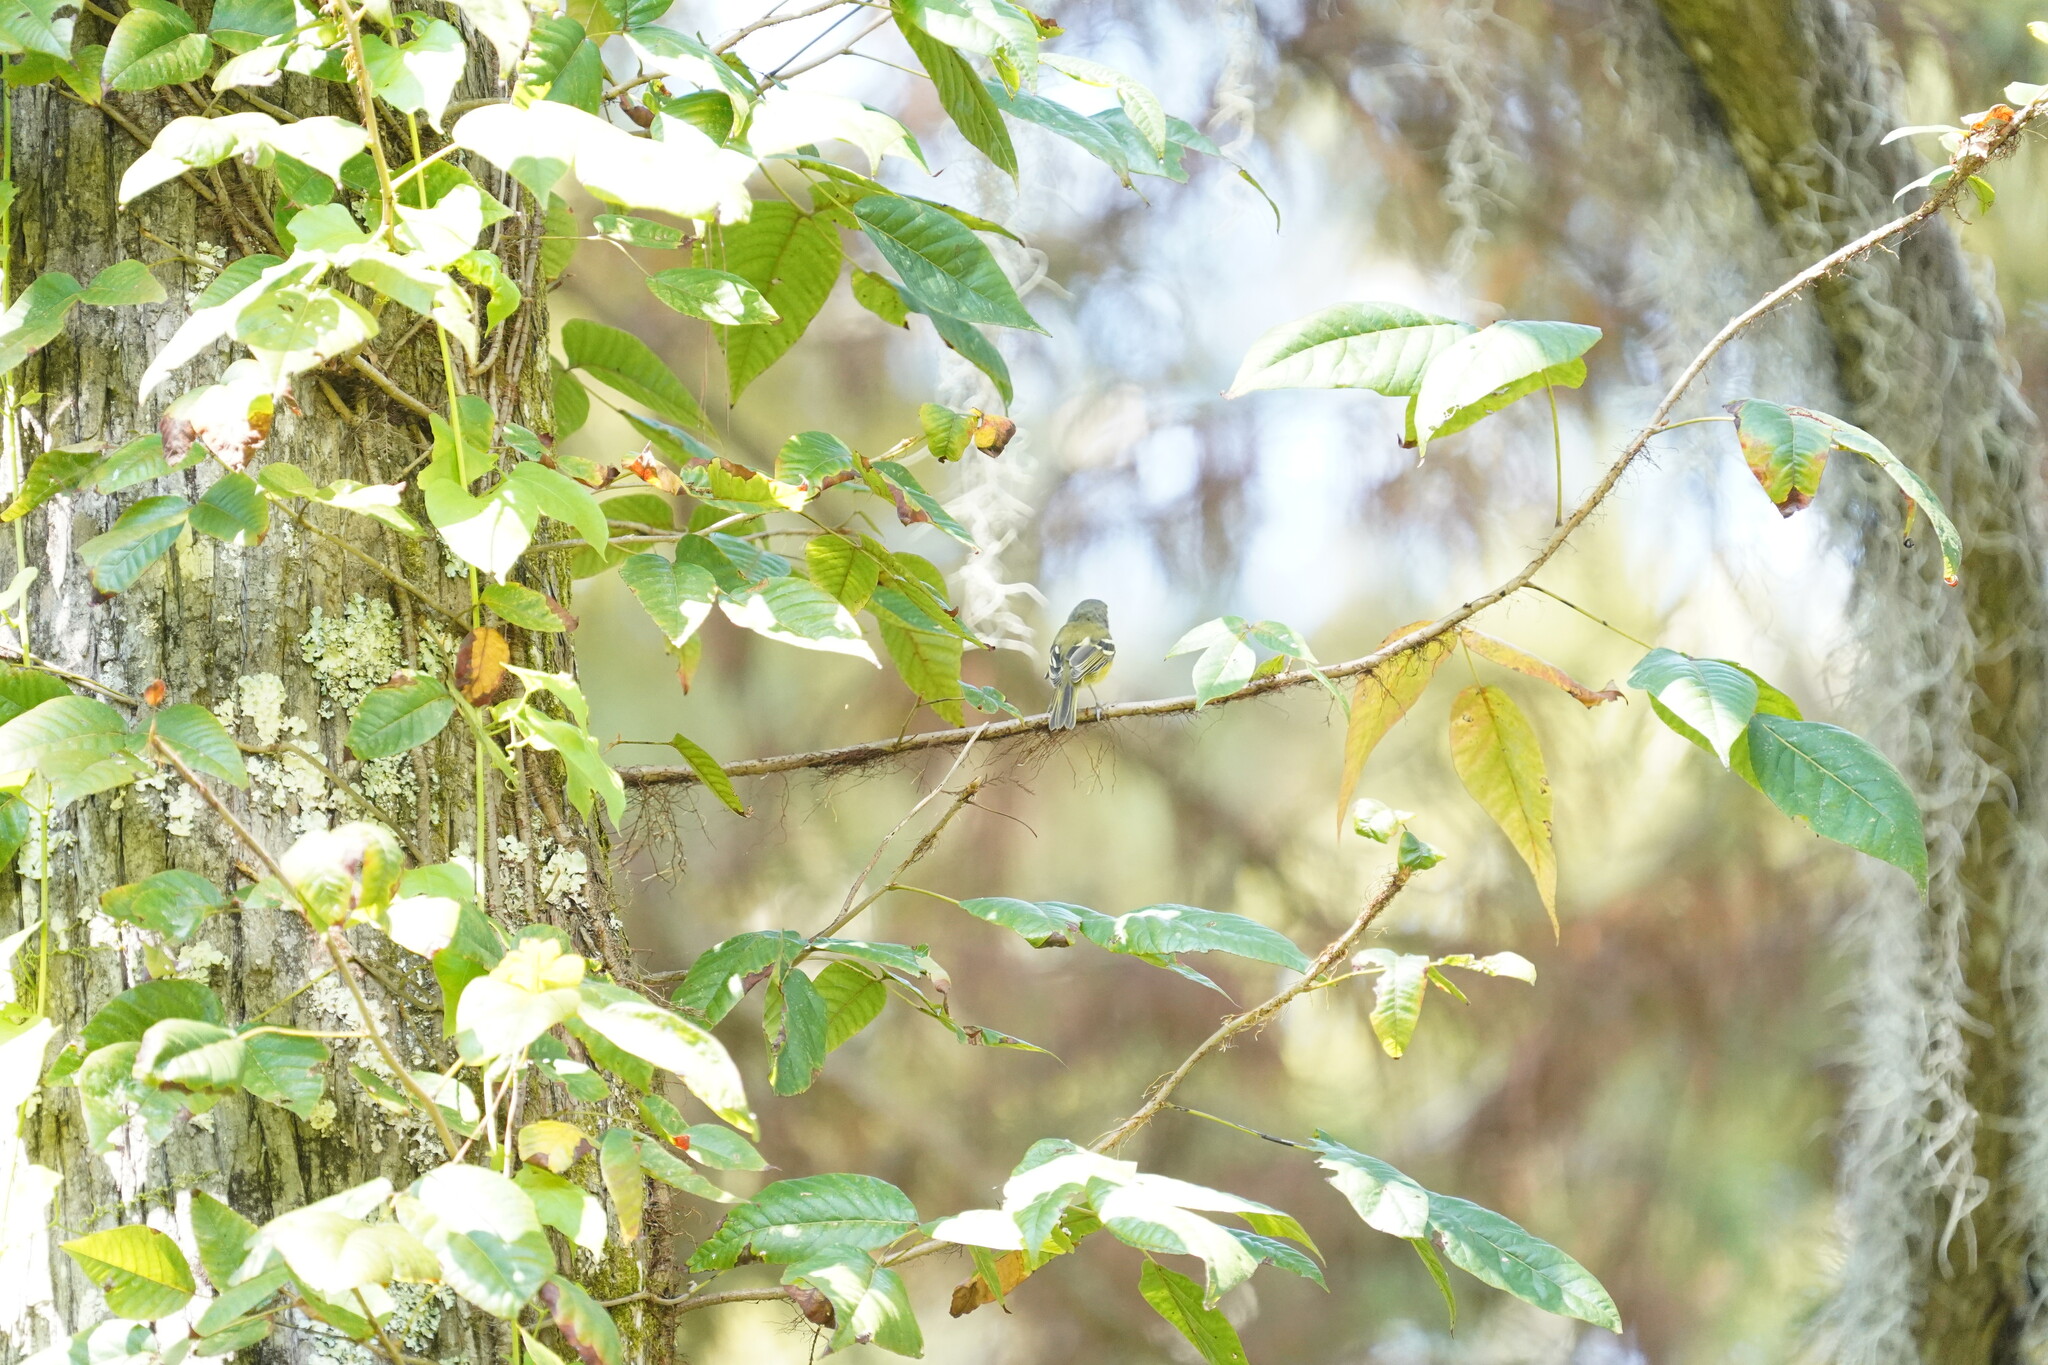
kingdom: Animalia
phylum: Chordata
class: Aves
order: Passeriformes
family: Vireonidae
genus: Vireo
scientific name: Vireo griseus
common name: White-eyed vireo
